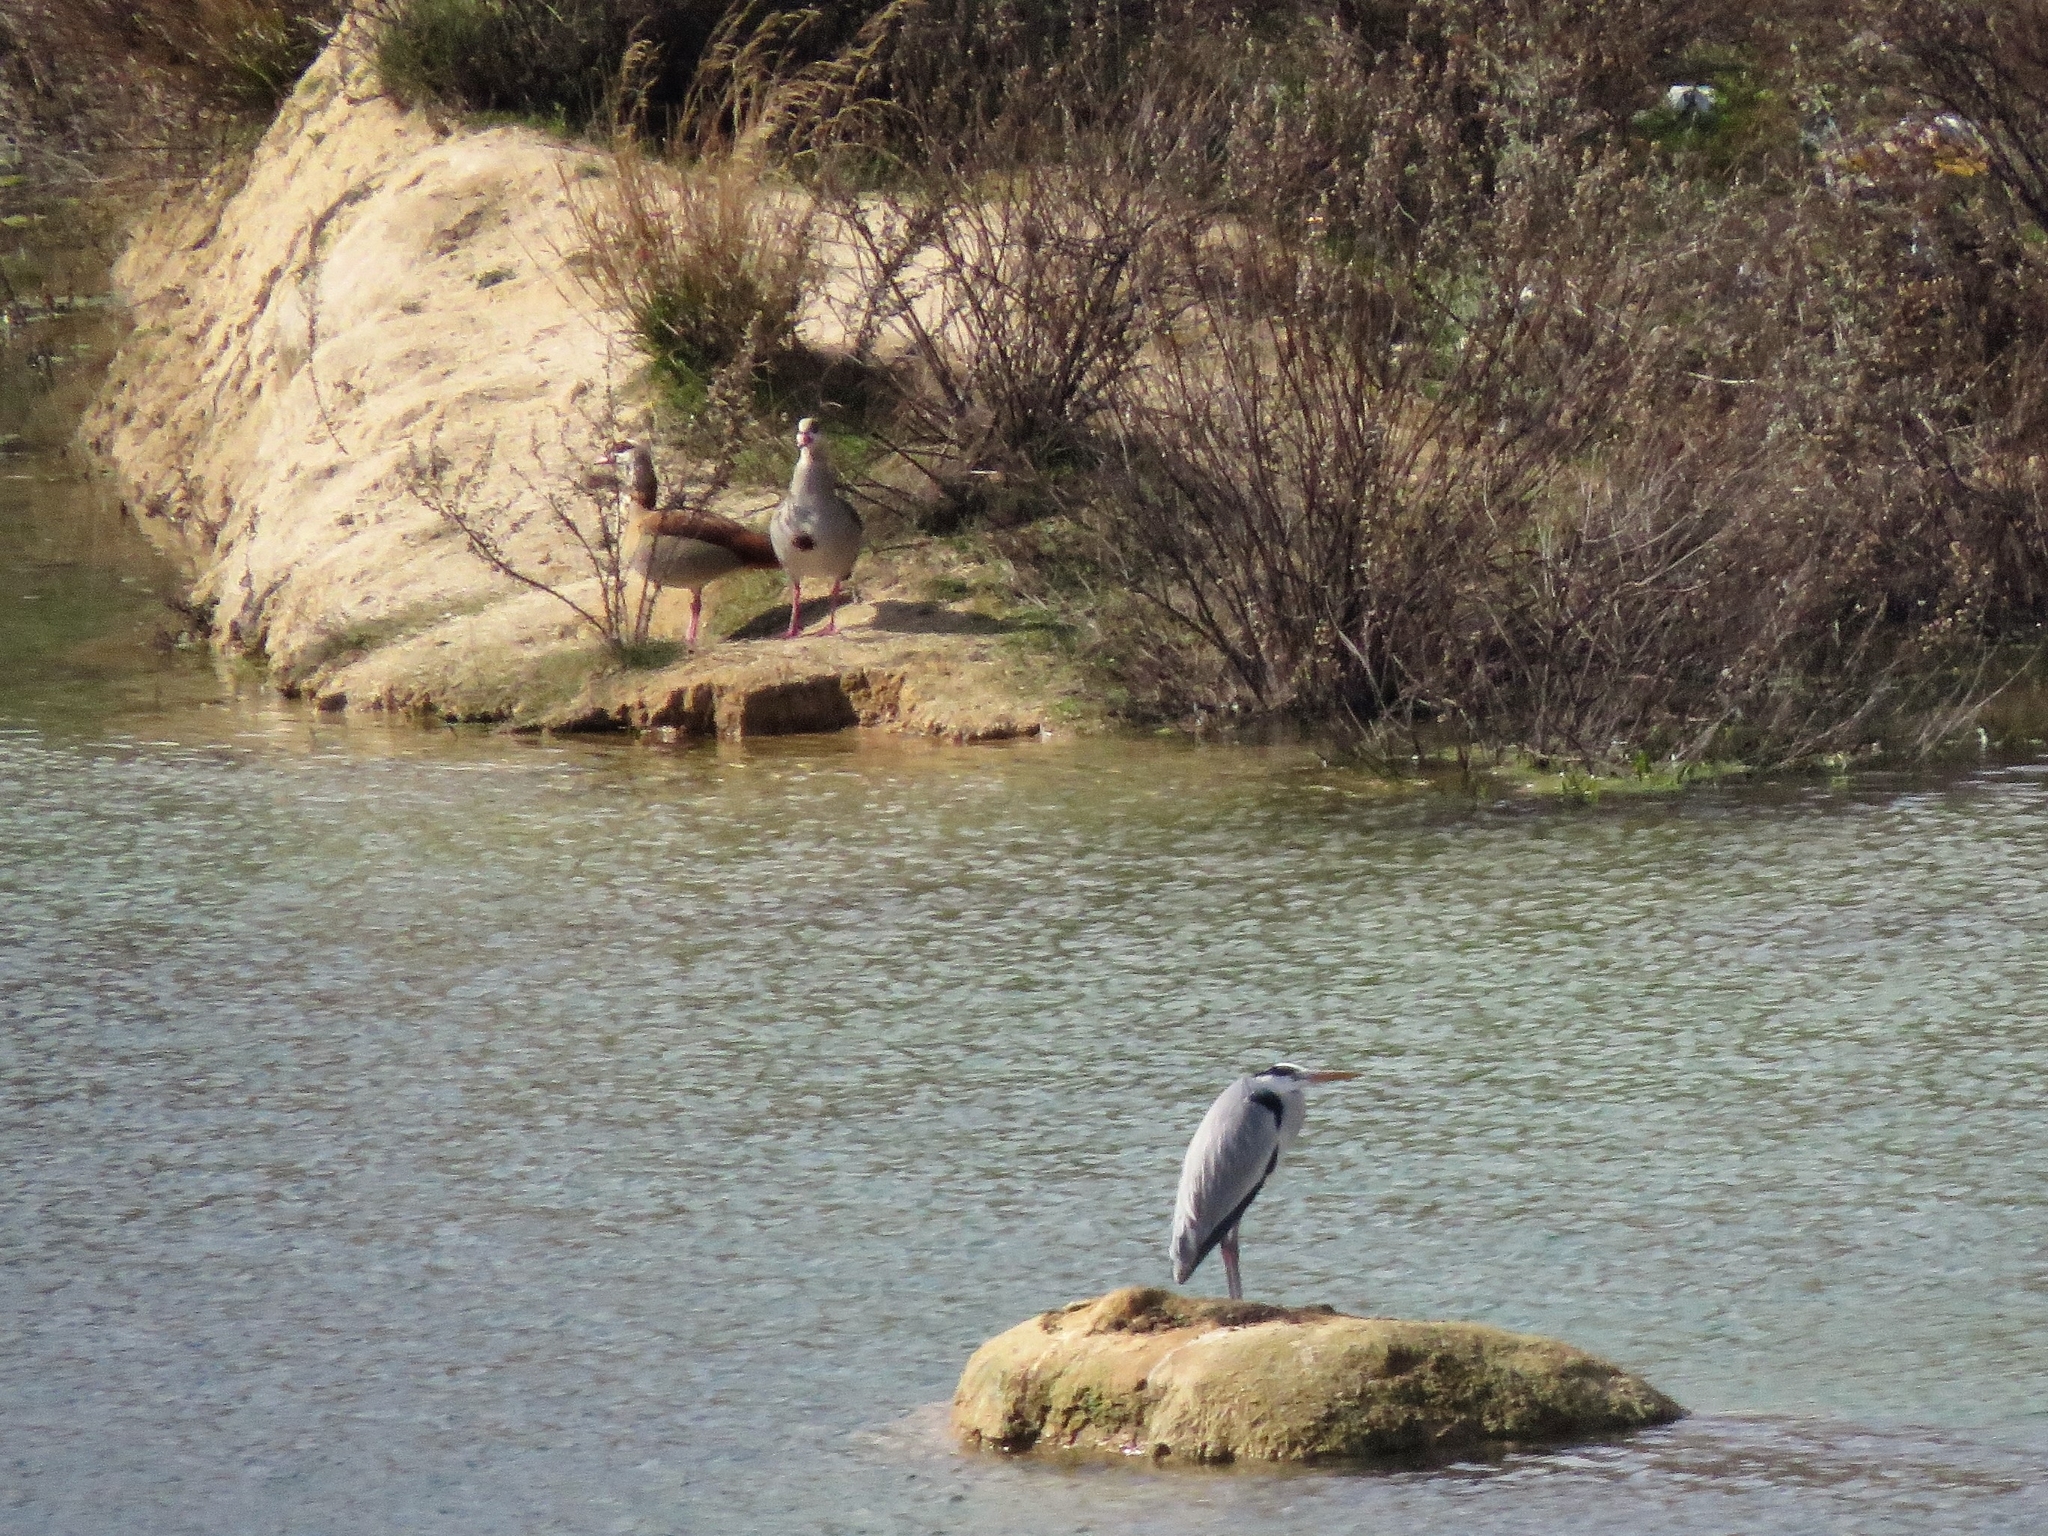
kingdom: Animalia
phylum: Chordata
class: Aves
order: Pelecaniformes
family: Ardeidae
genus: Ardea
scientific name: Ardea cinerea
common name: Grey heron
